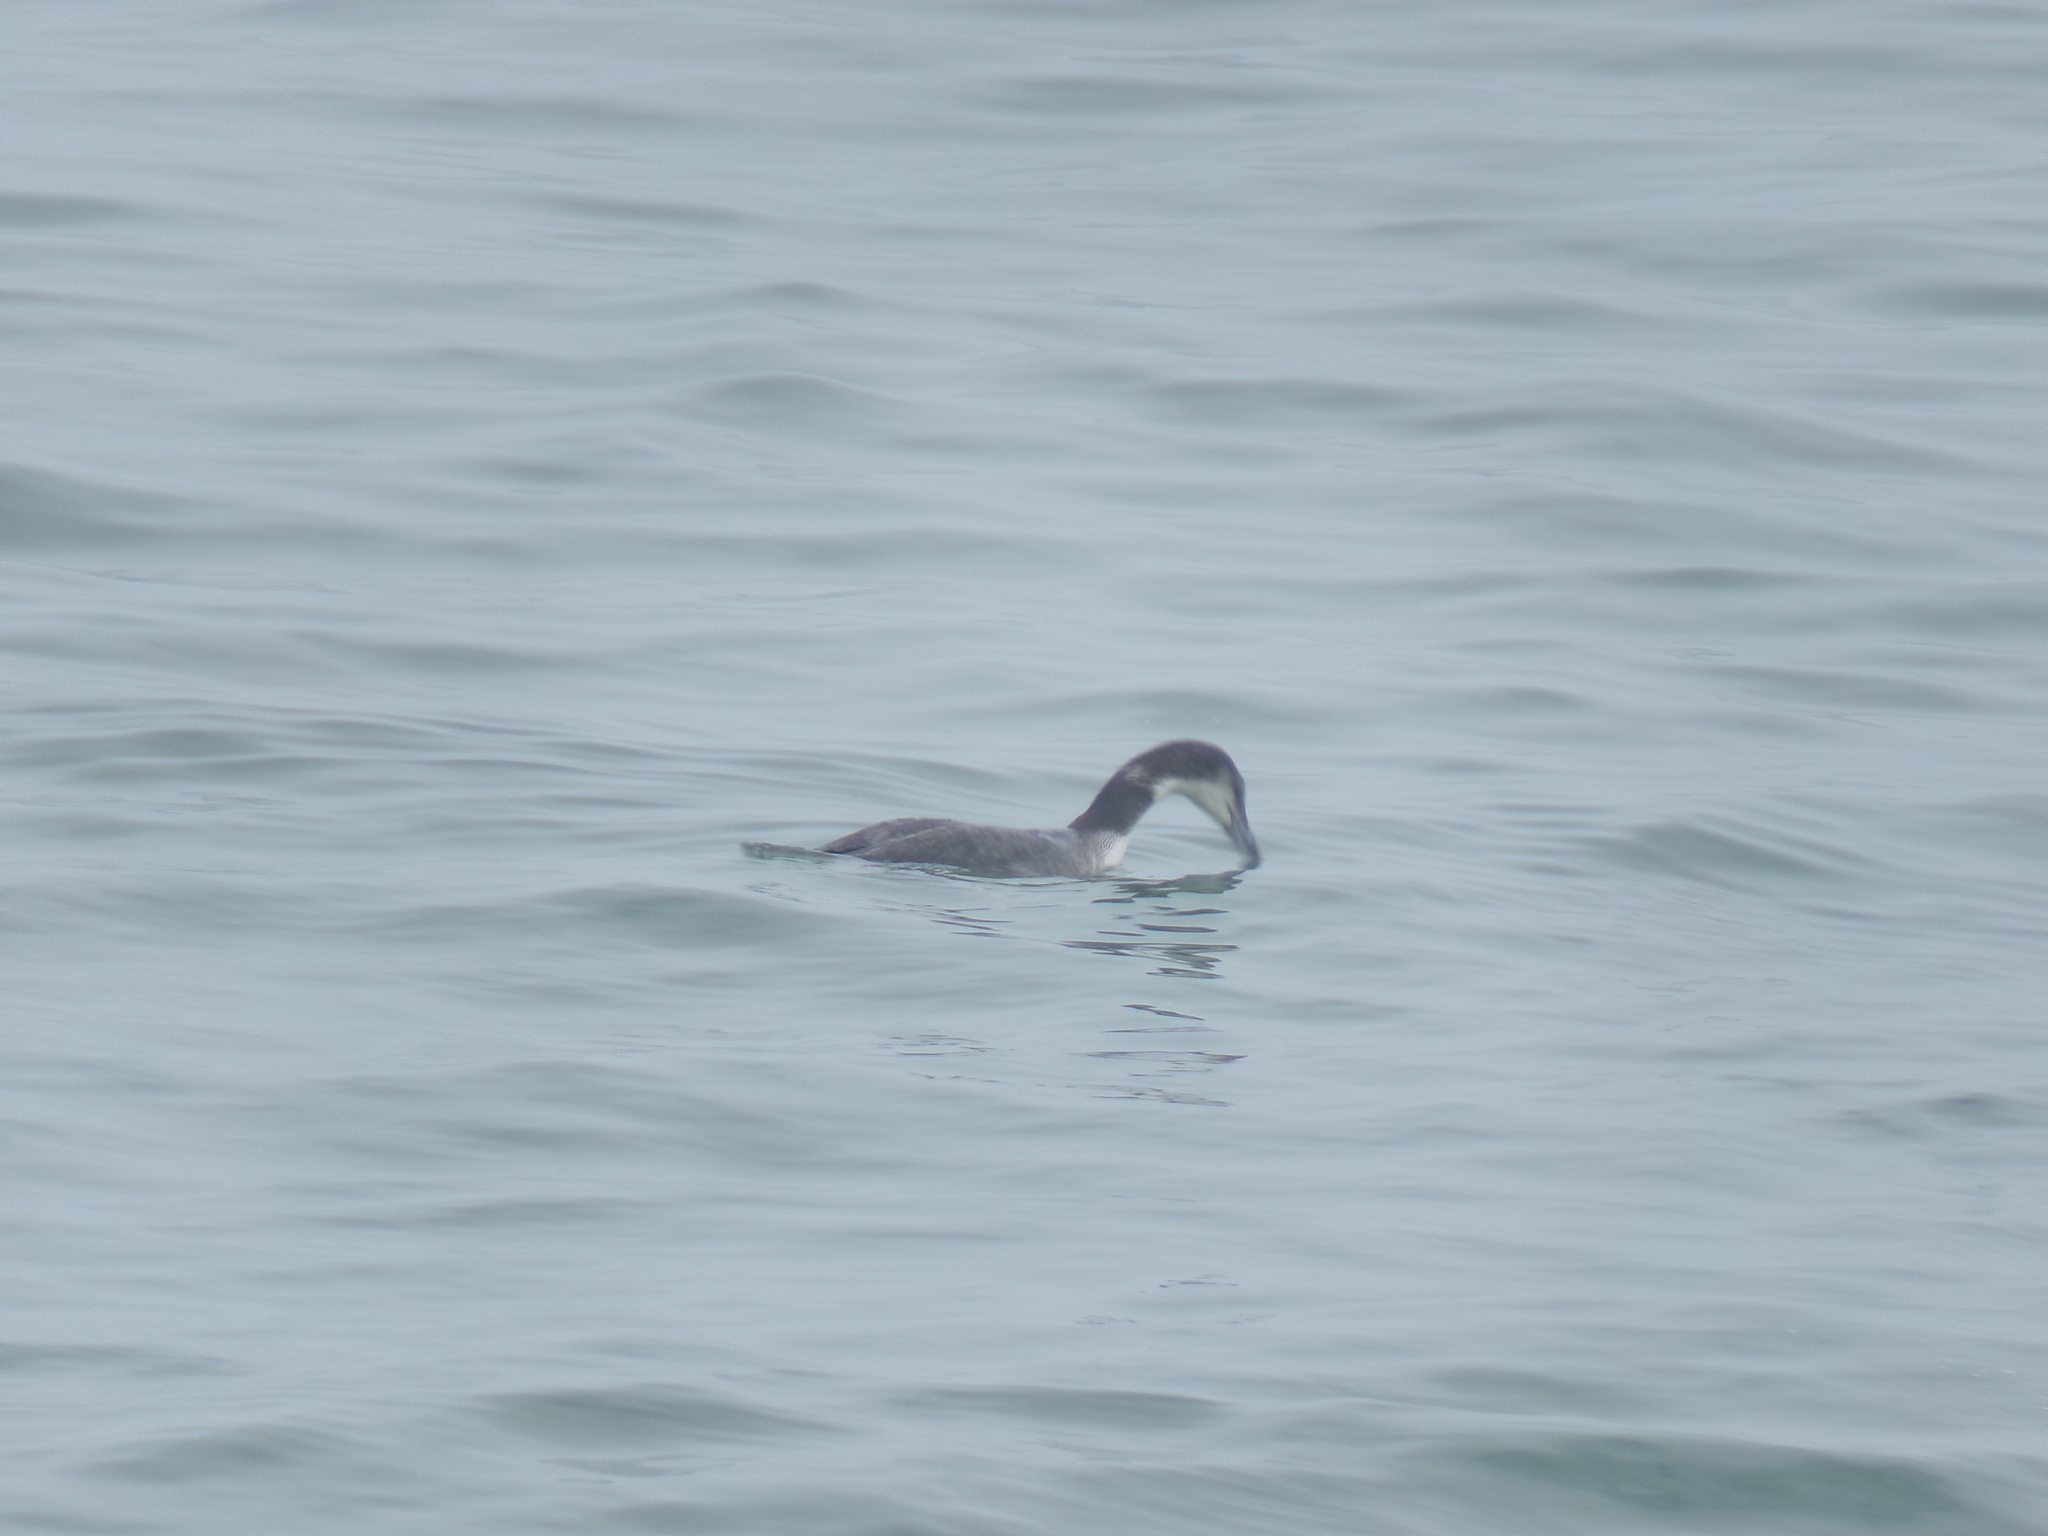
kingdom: Animalia
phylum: Chordata
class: Aves
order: Gaviiformes
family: Gaviidae
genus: Gavia
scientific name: Gavia immer
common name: Common loon
